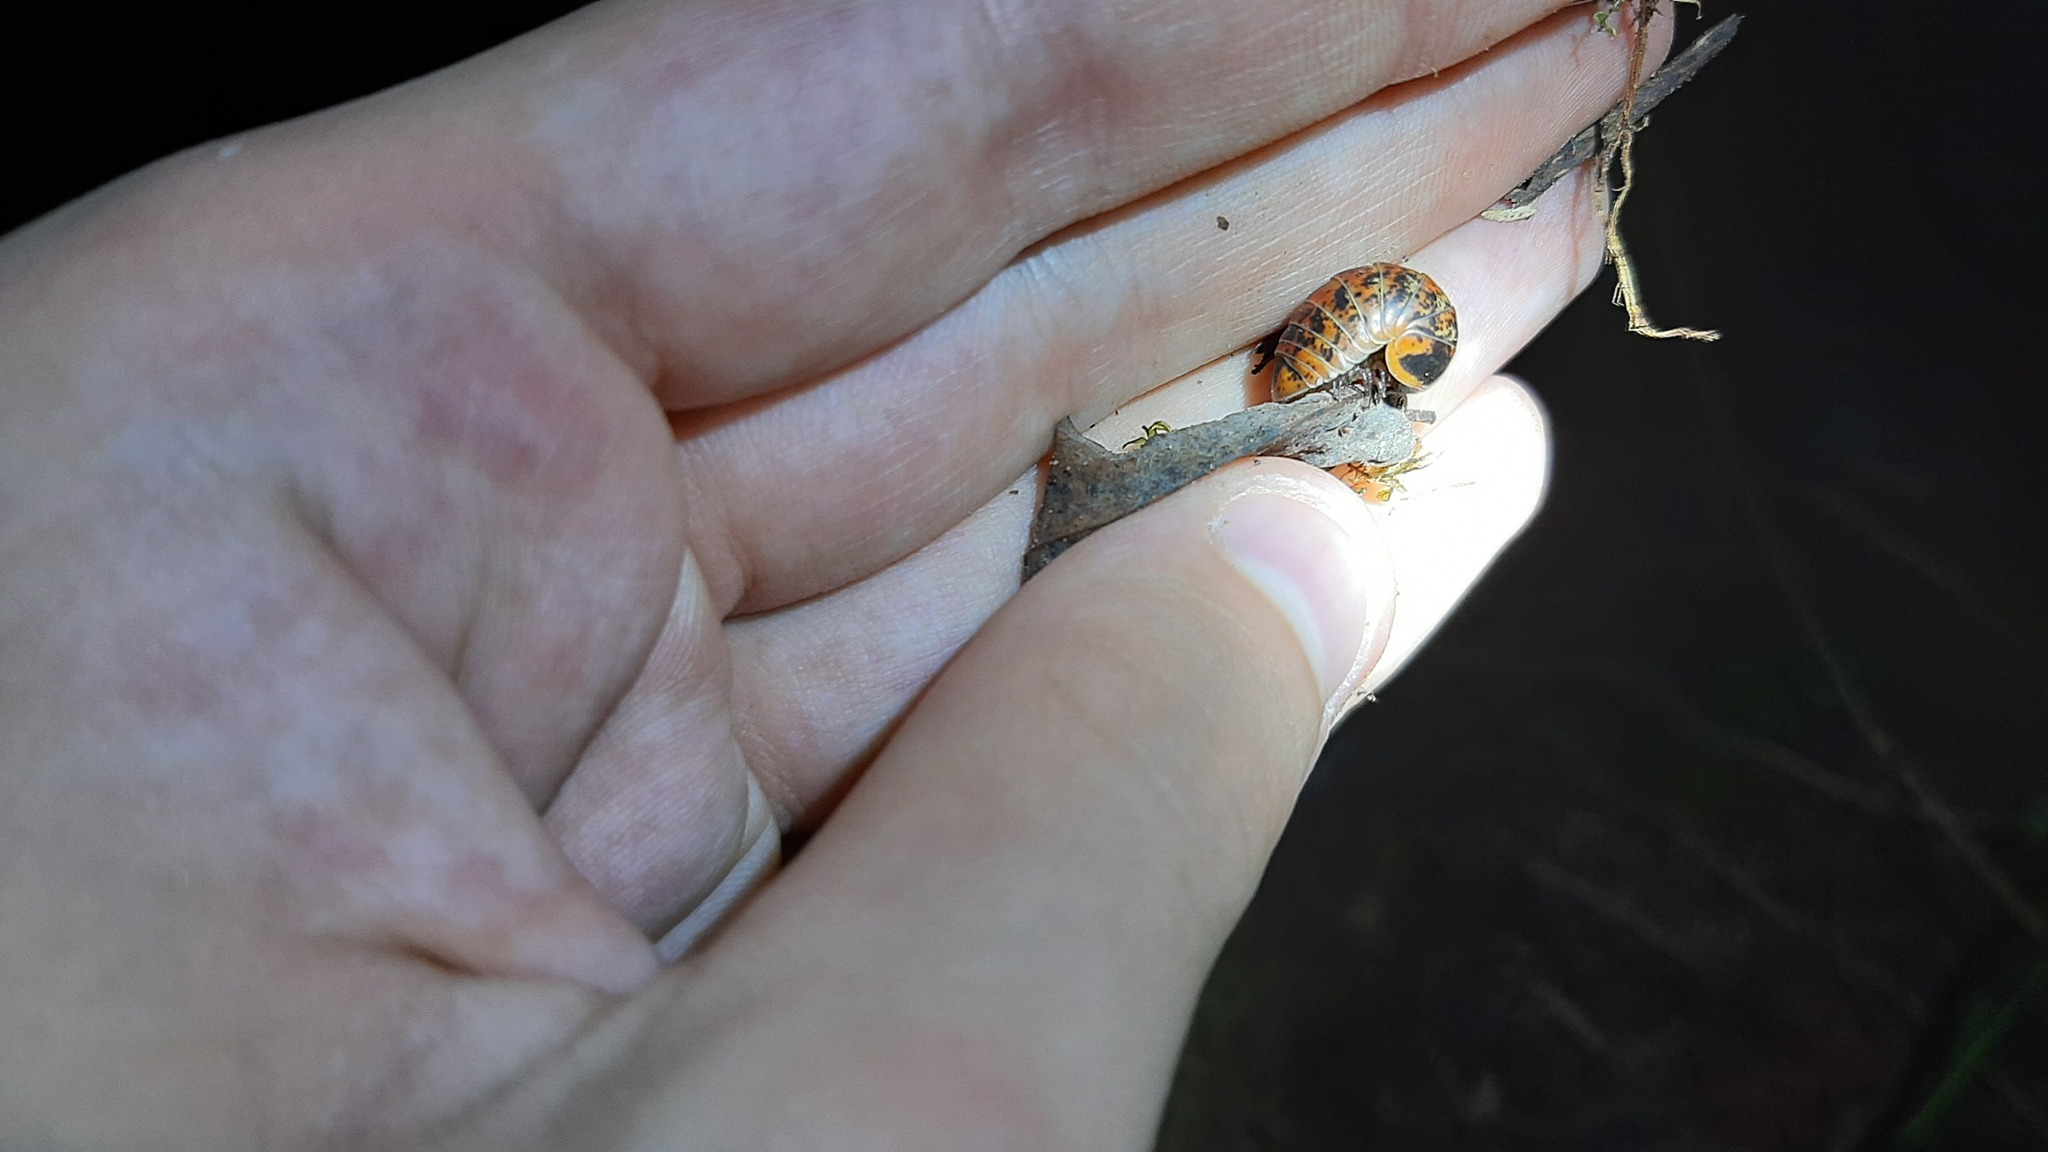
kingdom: Animalia
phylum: Arthropoda
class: Diplopoda
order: Glomerida
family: Glomeridae
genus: Glomeris
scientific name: Glomeris klugii
